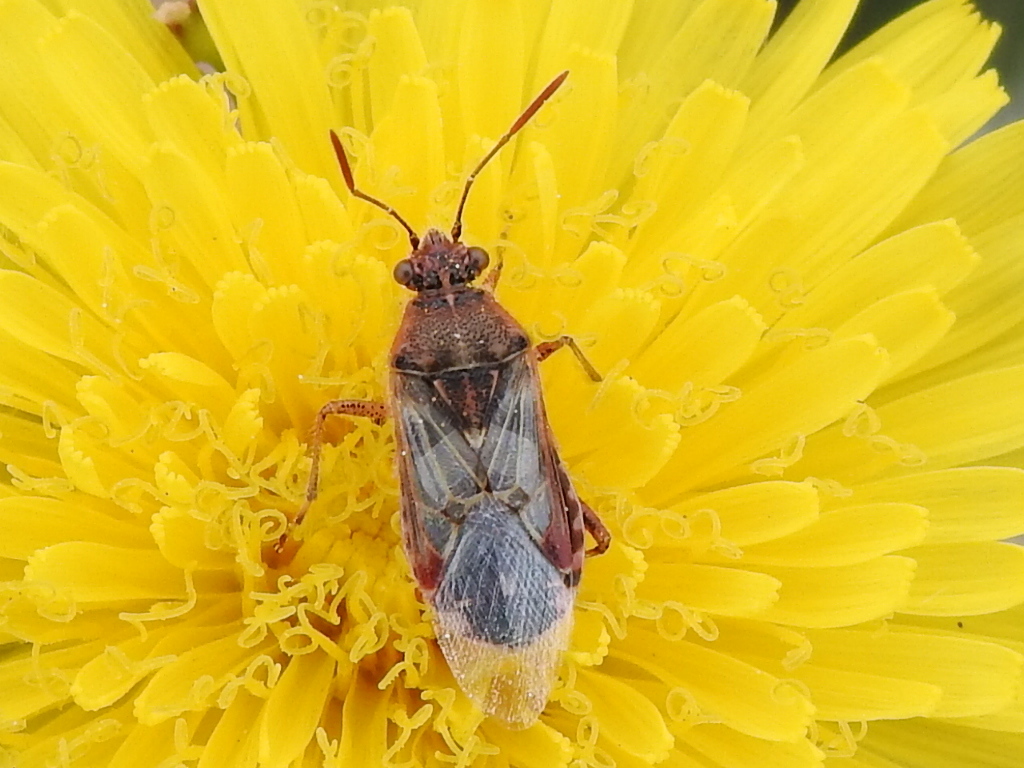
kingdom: Animalia
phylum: Arthropoda
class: Insecta
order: Hemiptera
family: Rhopalidae
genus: Liorhyssus
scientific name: Liorhyssus hyalinus
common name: Scentless plant bug
